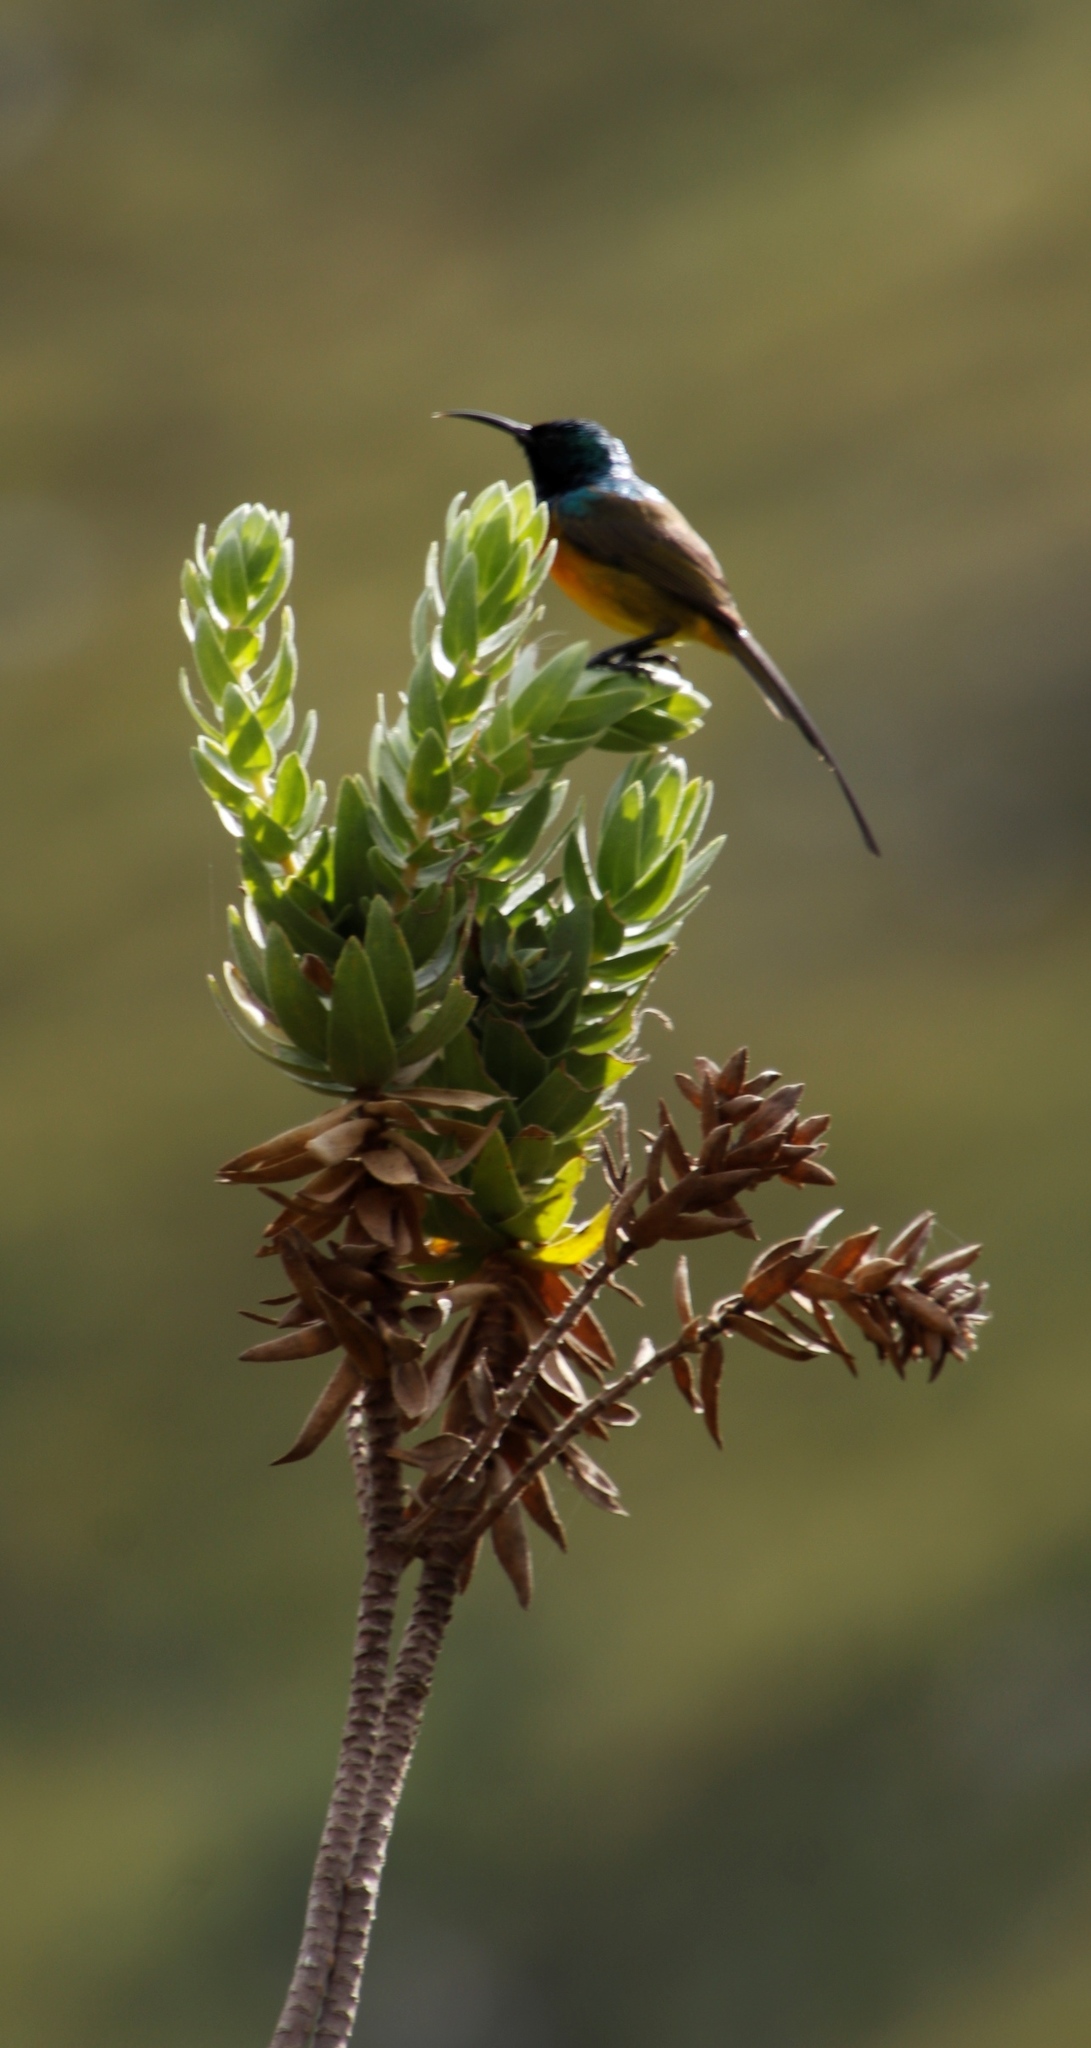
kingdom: Animalia
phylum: Chordata
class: Aves
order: Passeriformes
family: Nectariniidae
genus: Anthobaphes
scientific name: Anthobaphes violacea
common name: Orange-breasted sunbird
